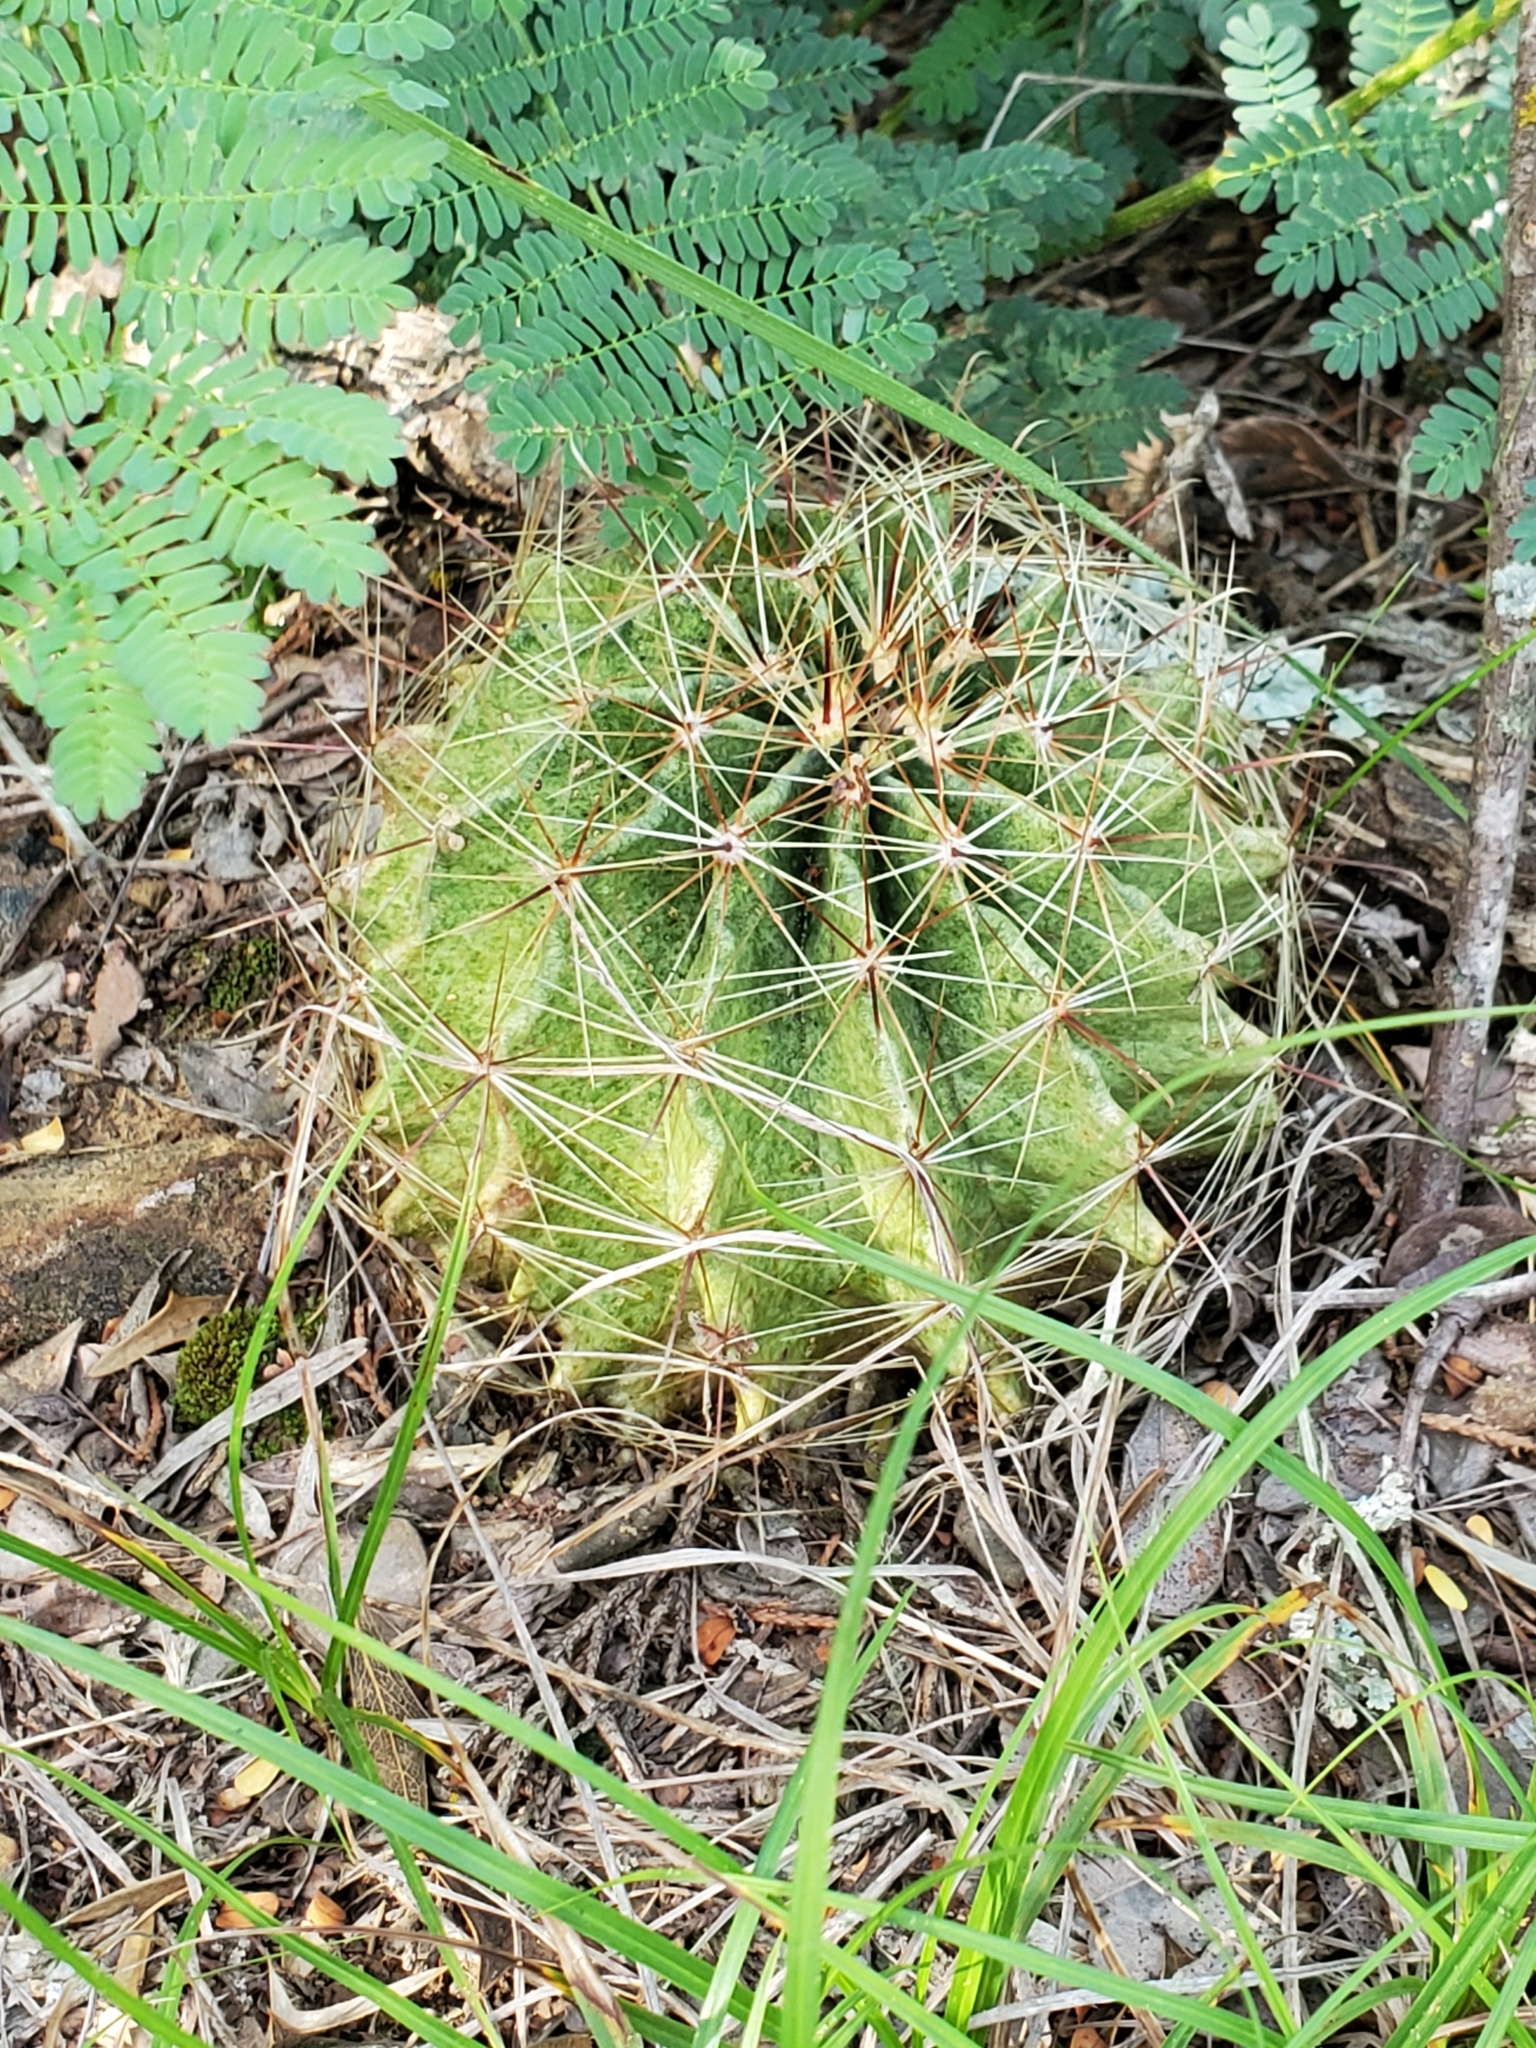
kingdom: Plantae
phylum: Tracheophyta
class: Magnoliopsida
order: Caryophyllales
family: Cactaceae
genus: Thelocactus
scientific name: Thelocactus setispinus
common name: Miniature barrel cactus
